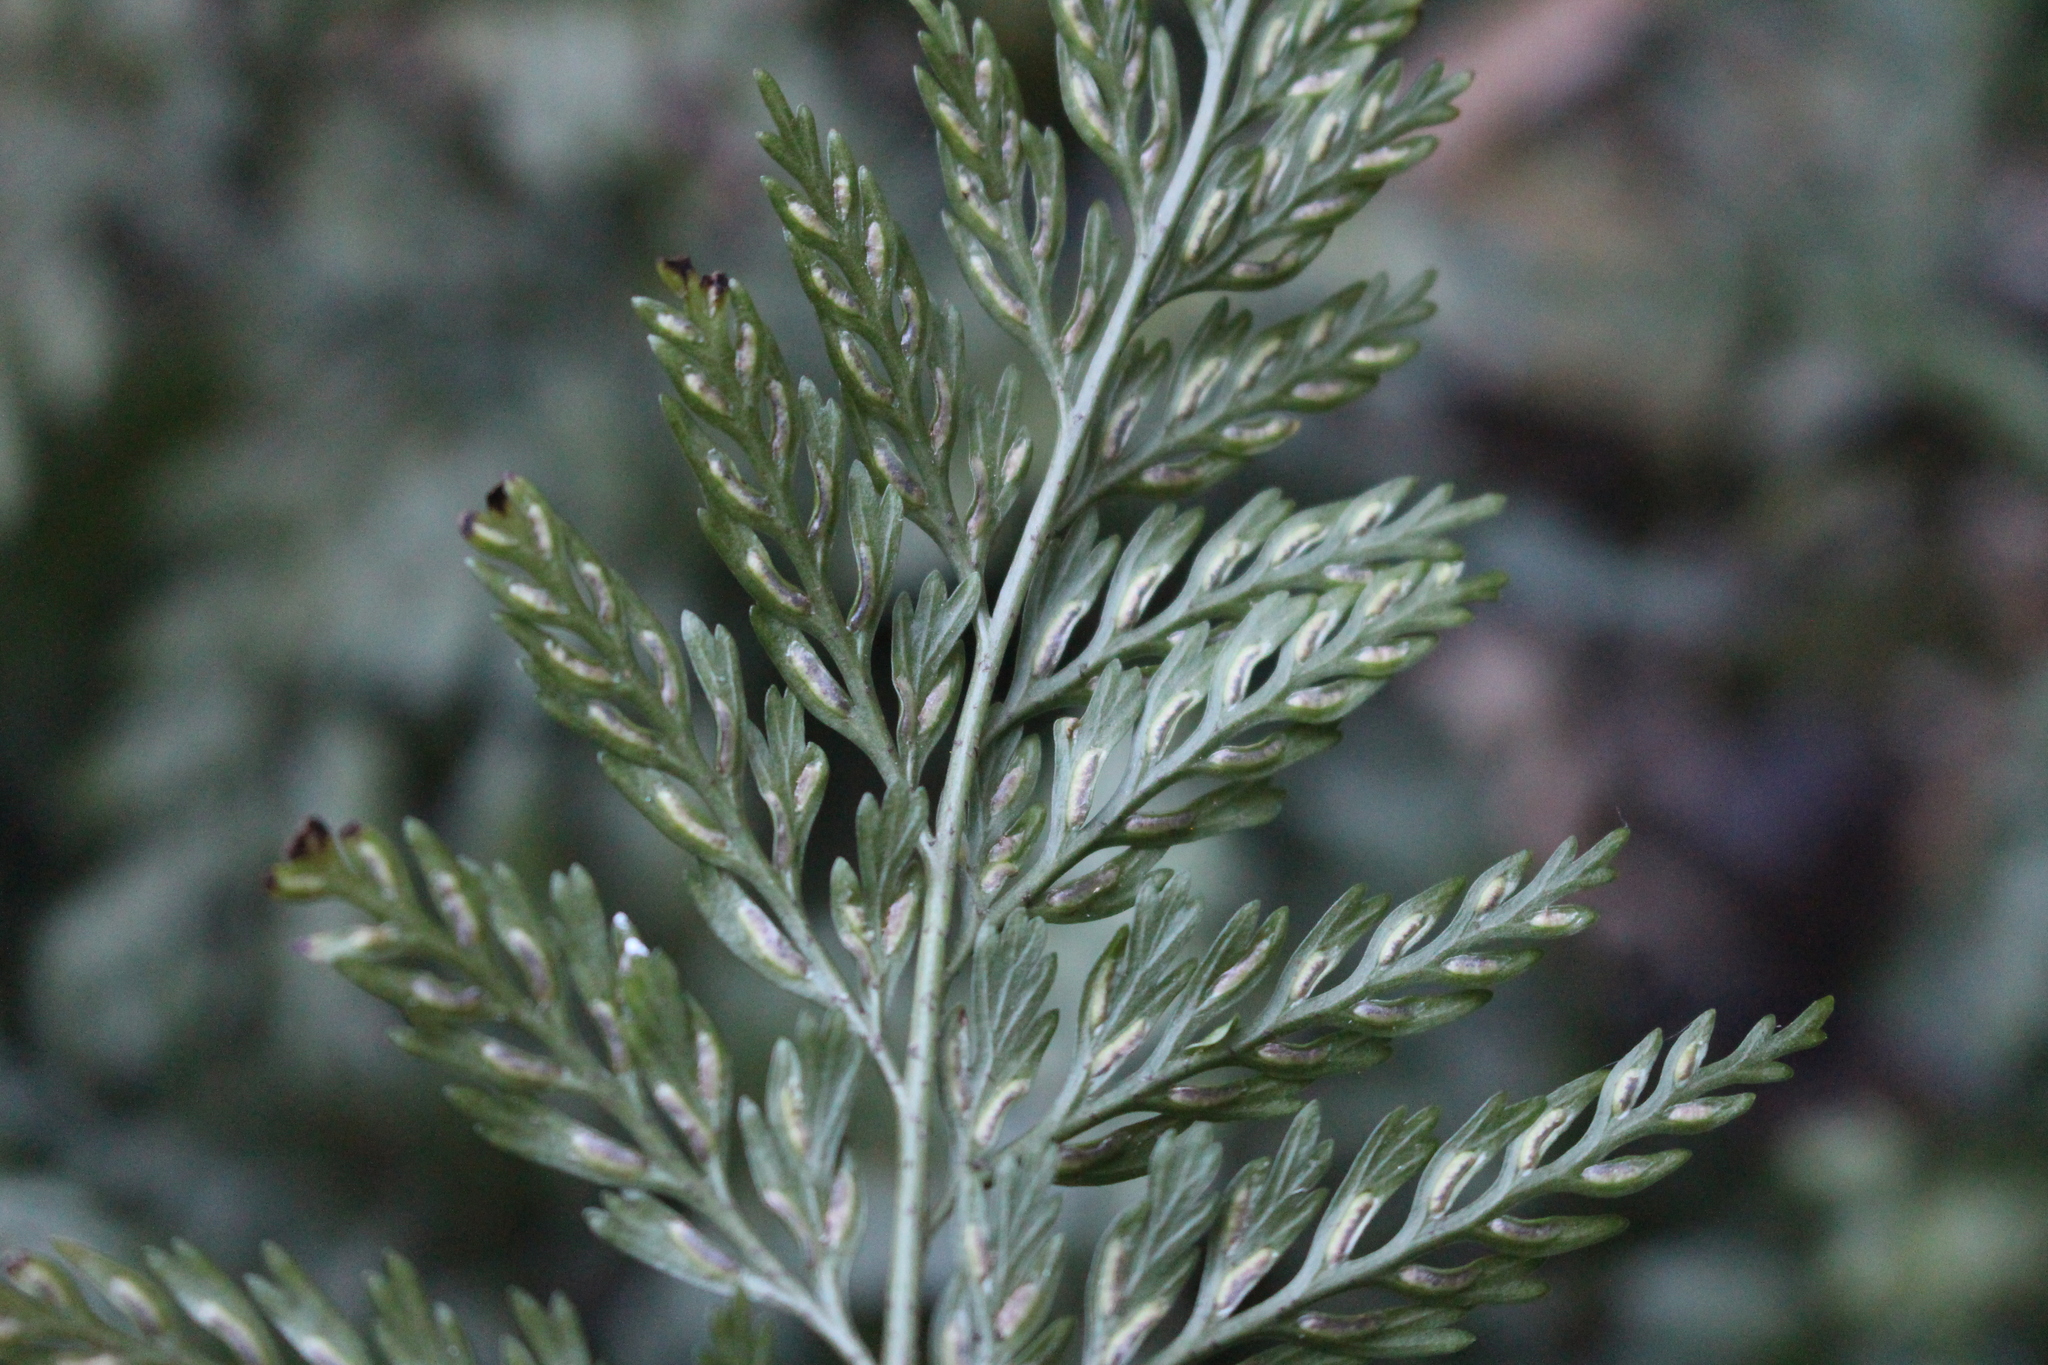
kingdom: Plantae
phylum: Tracheophyta
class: Polypodiopsida
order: Polypodiales
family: Aspleniaceae
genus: Asplenium
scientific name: Asplenium
